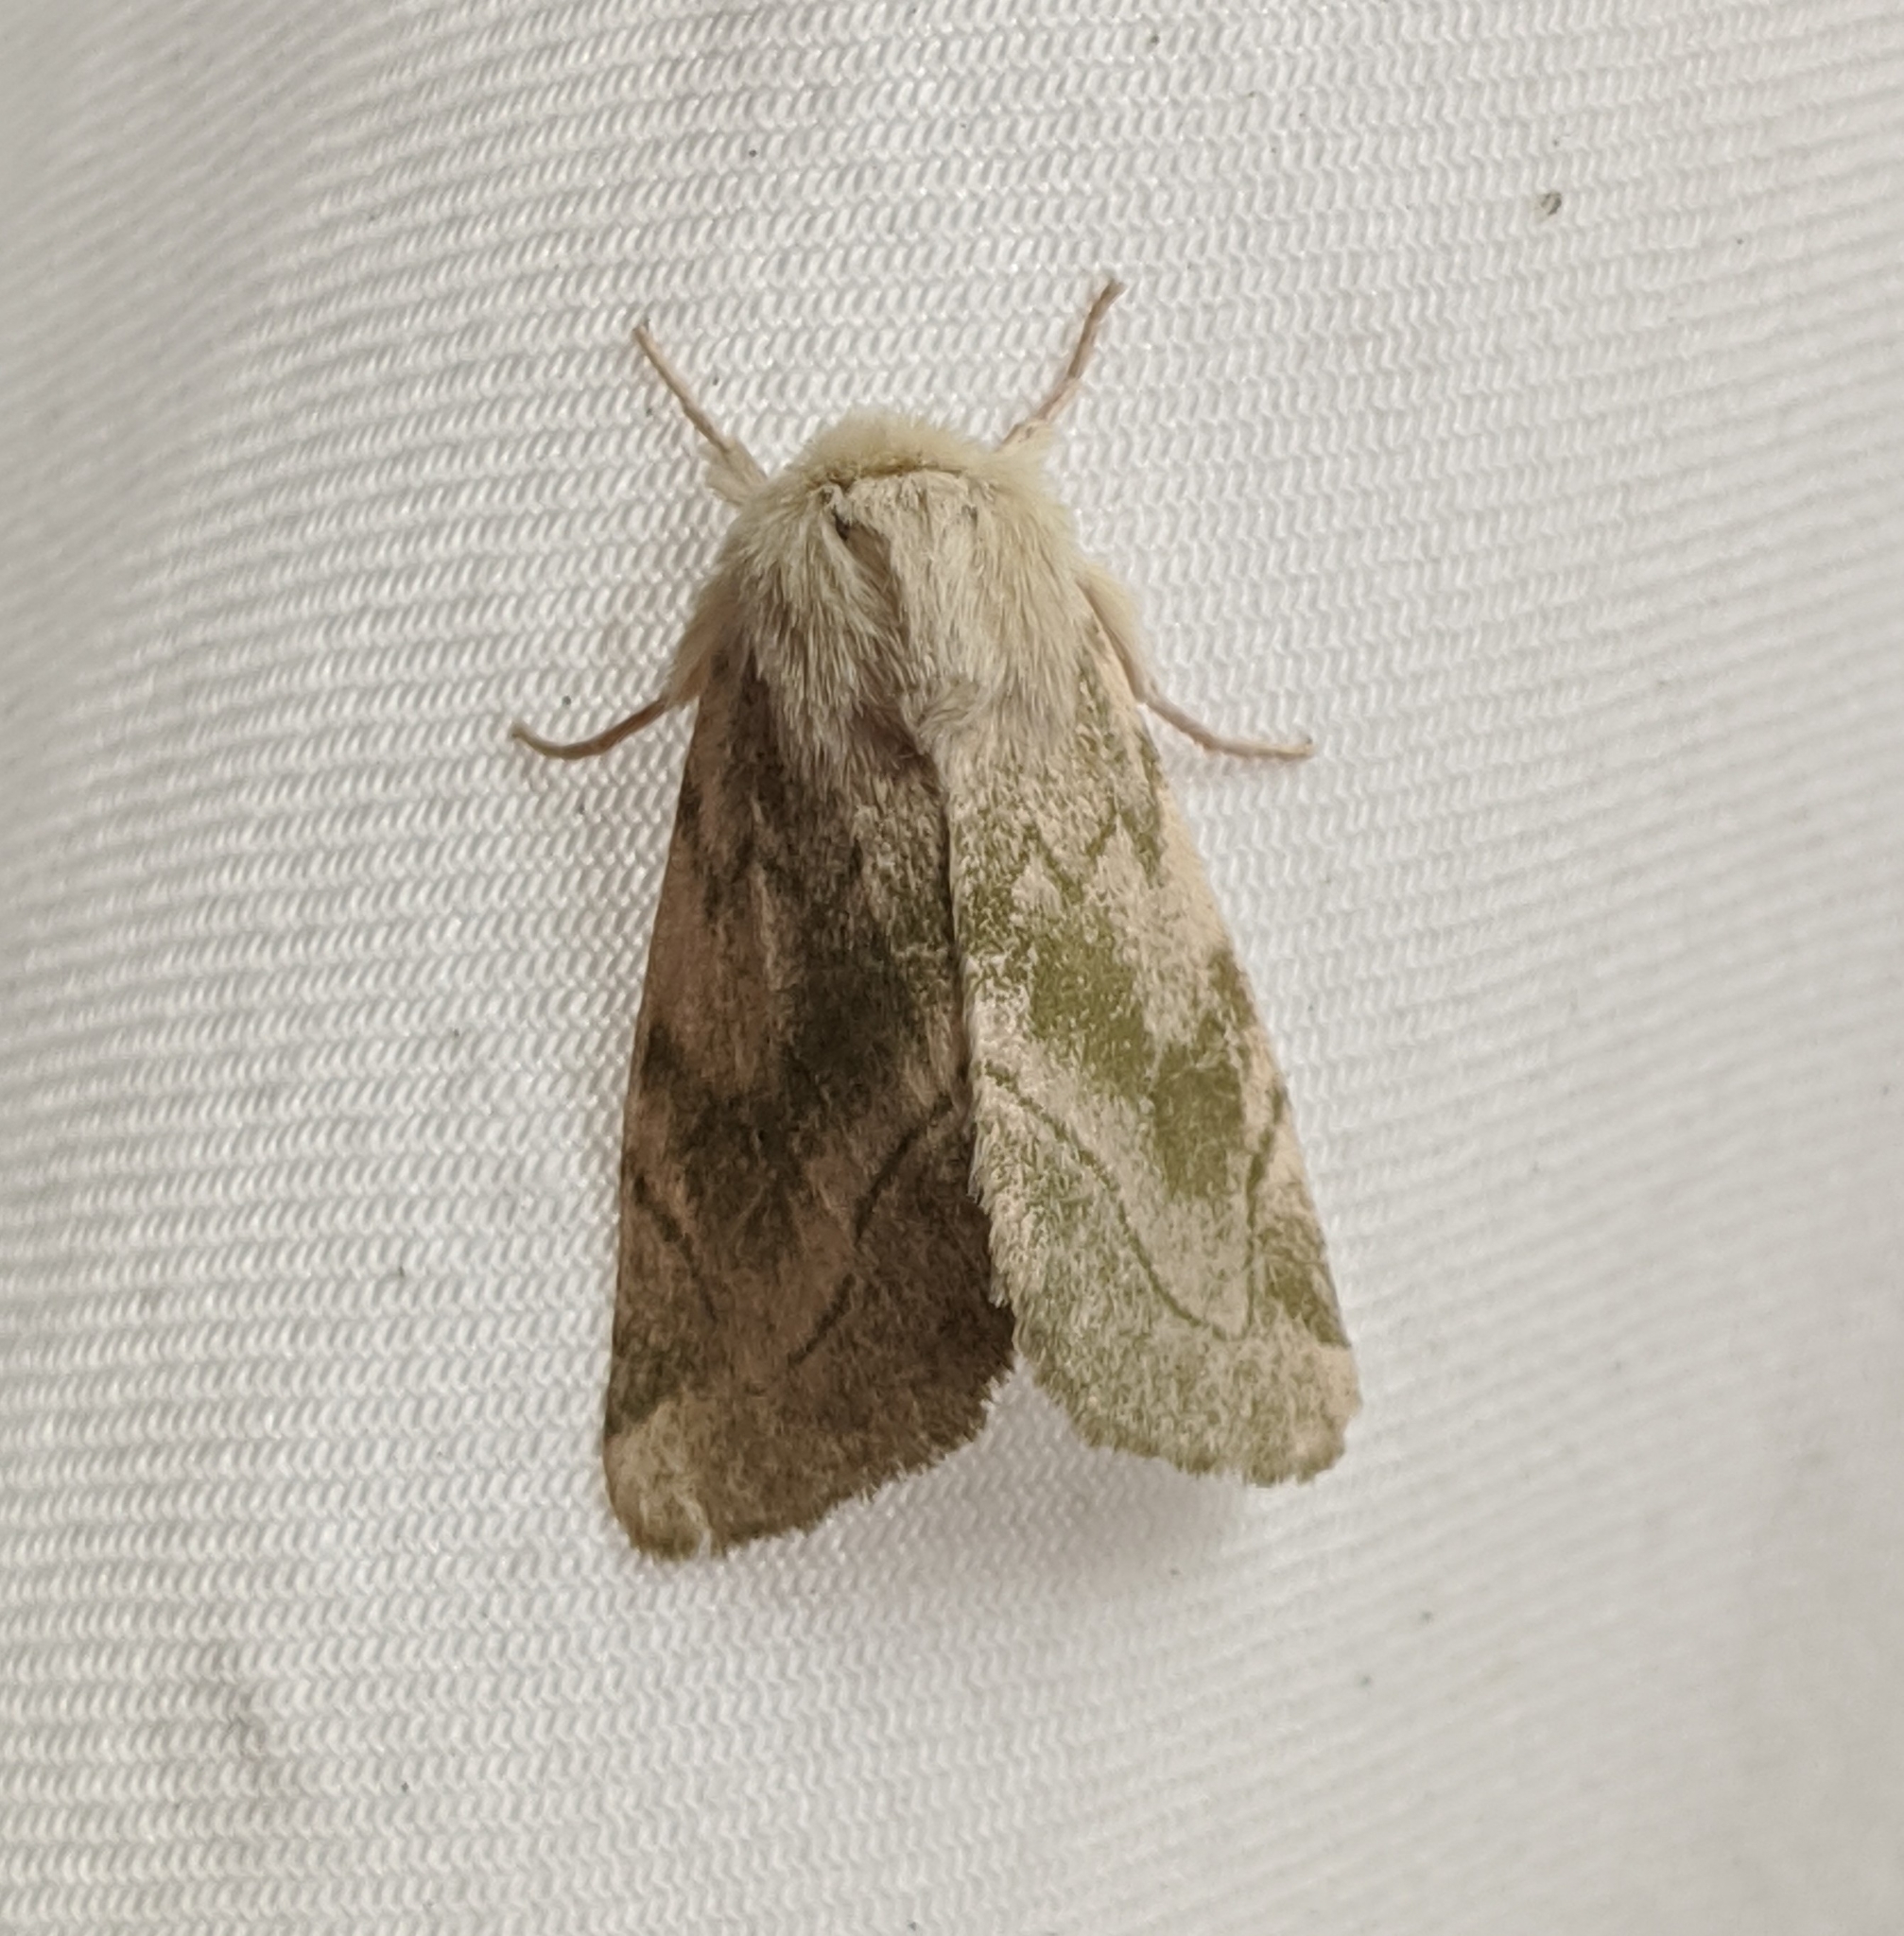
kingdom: Animalia
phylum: Arthropoda
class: Insecta
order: Lepidoptera
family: Noctuidae
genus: Zotheca
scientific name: Zotheca tranquilla
